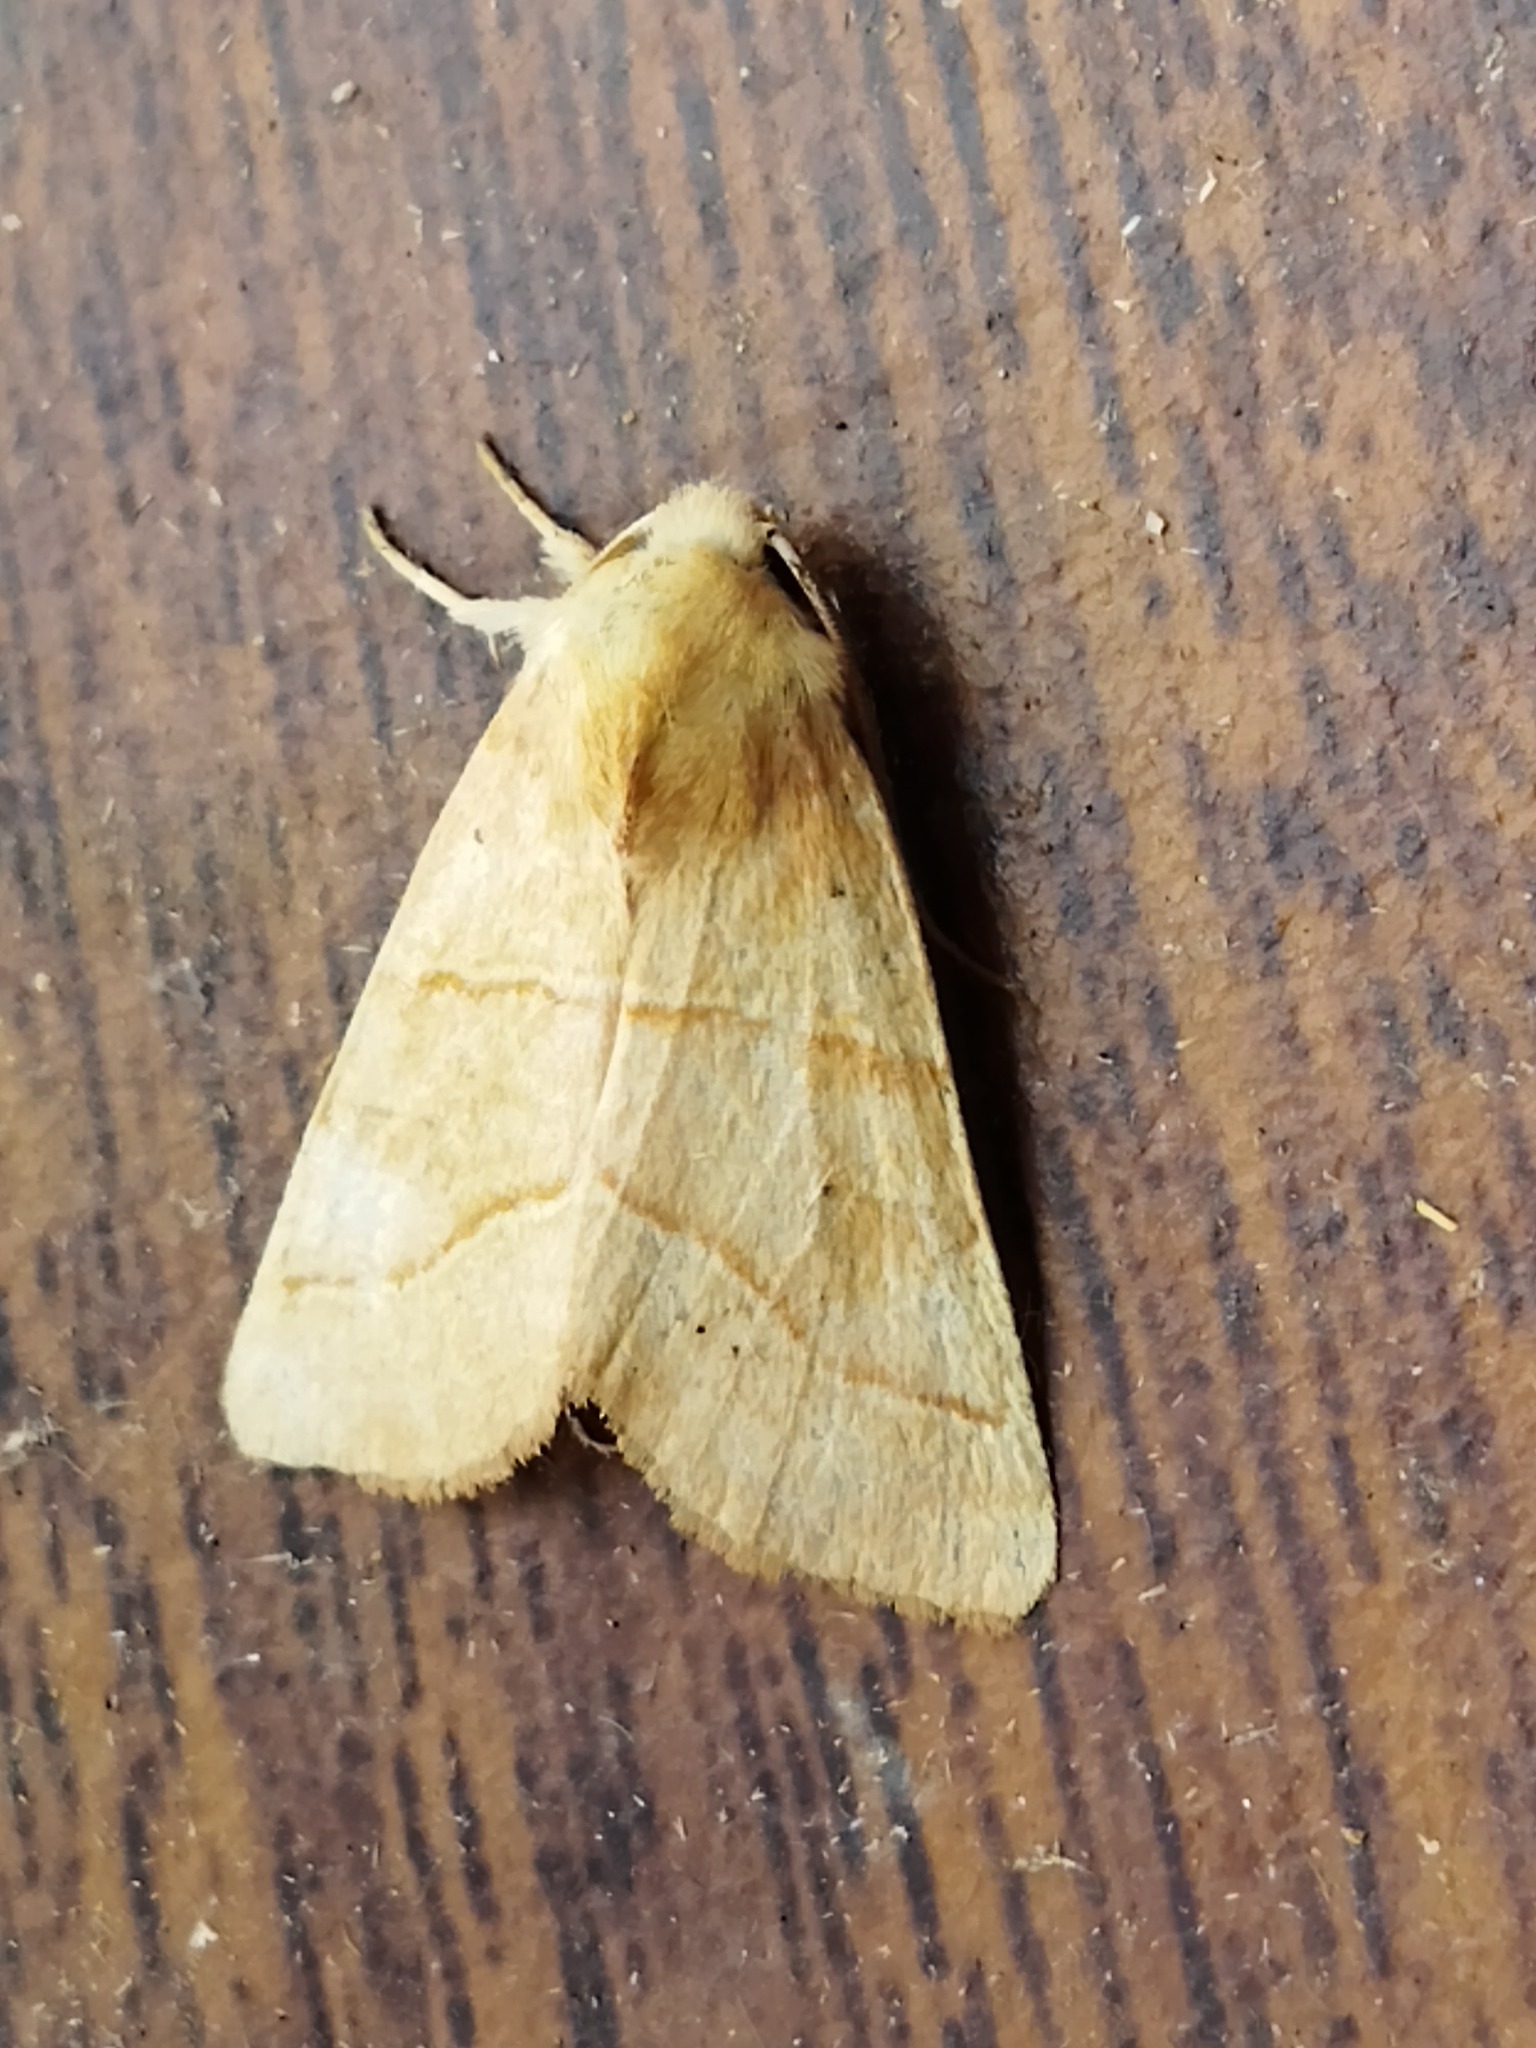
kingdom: Animalia
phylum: Arthropoda
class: Insecta
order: Lepidoptera
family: Noctuidae
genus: Atethmia
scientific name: Atethmia centrago
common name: Centre-barred sallow
